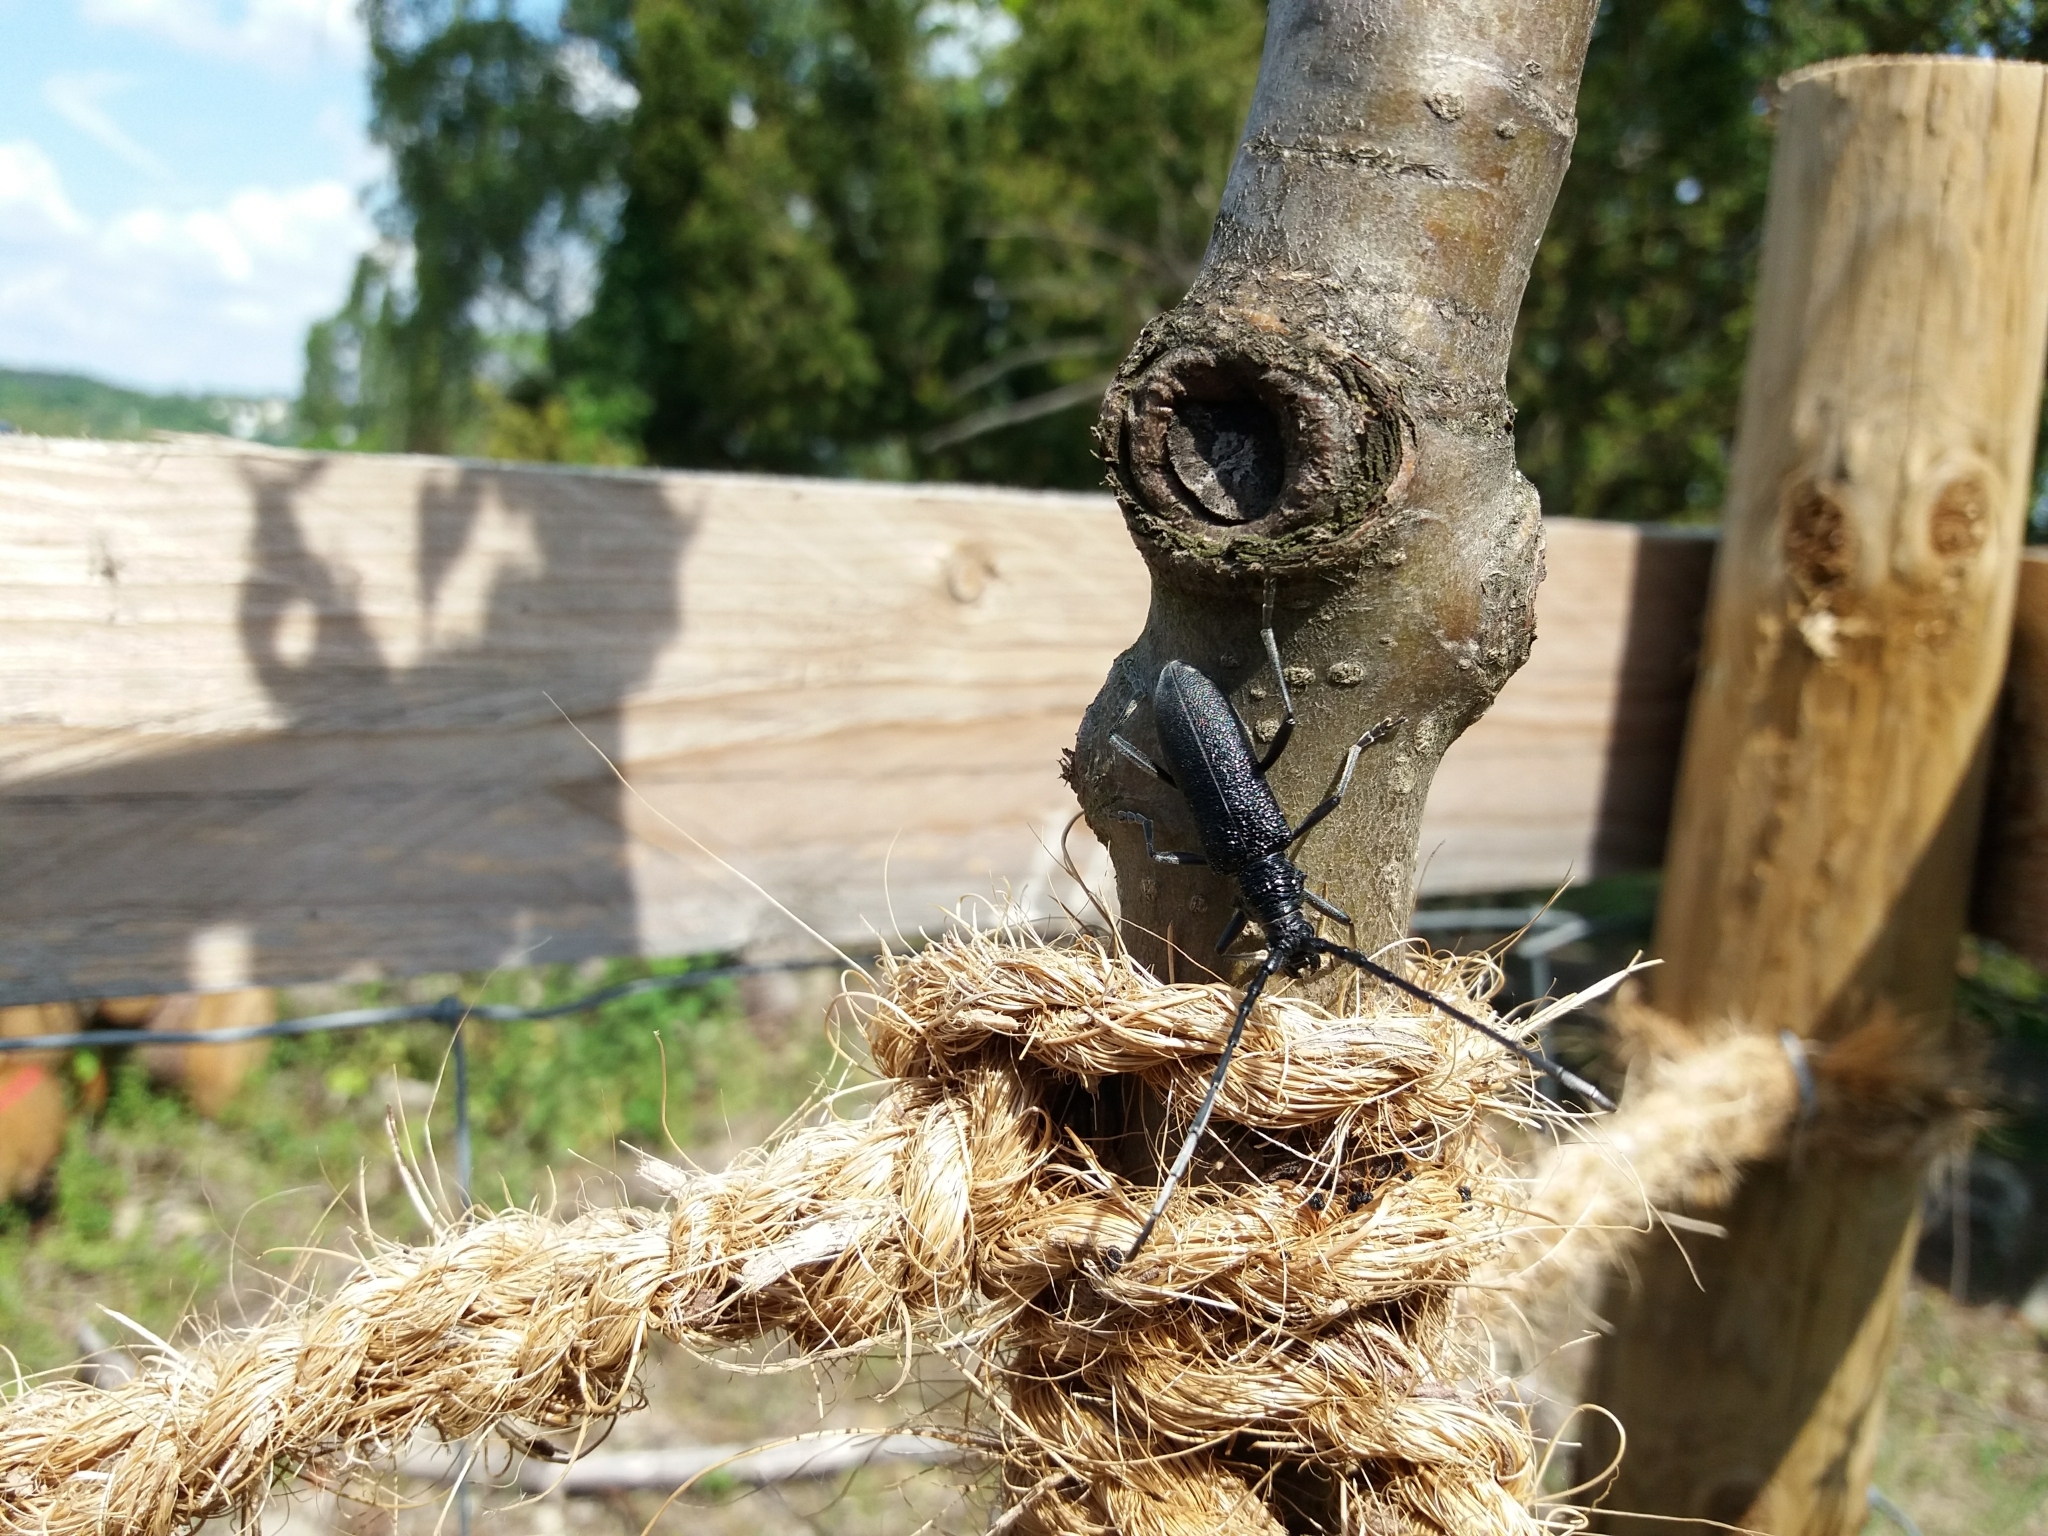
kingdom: Animalia
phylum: Arthropoda
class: Insecta
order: Coleoptera
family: Cerambycidae
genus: Cerambyx
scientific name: Cerambyx scopolii
